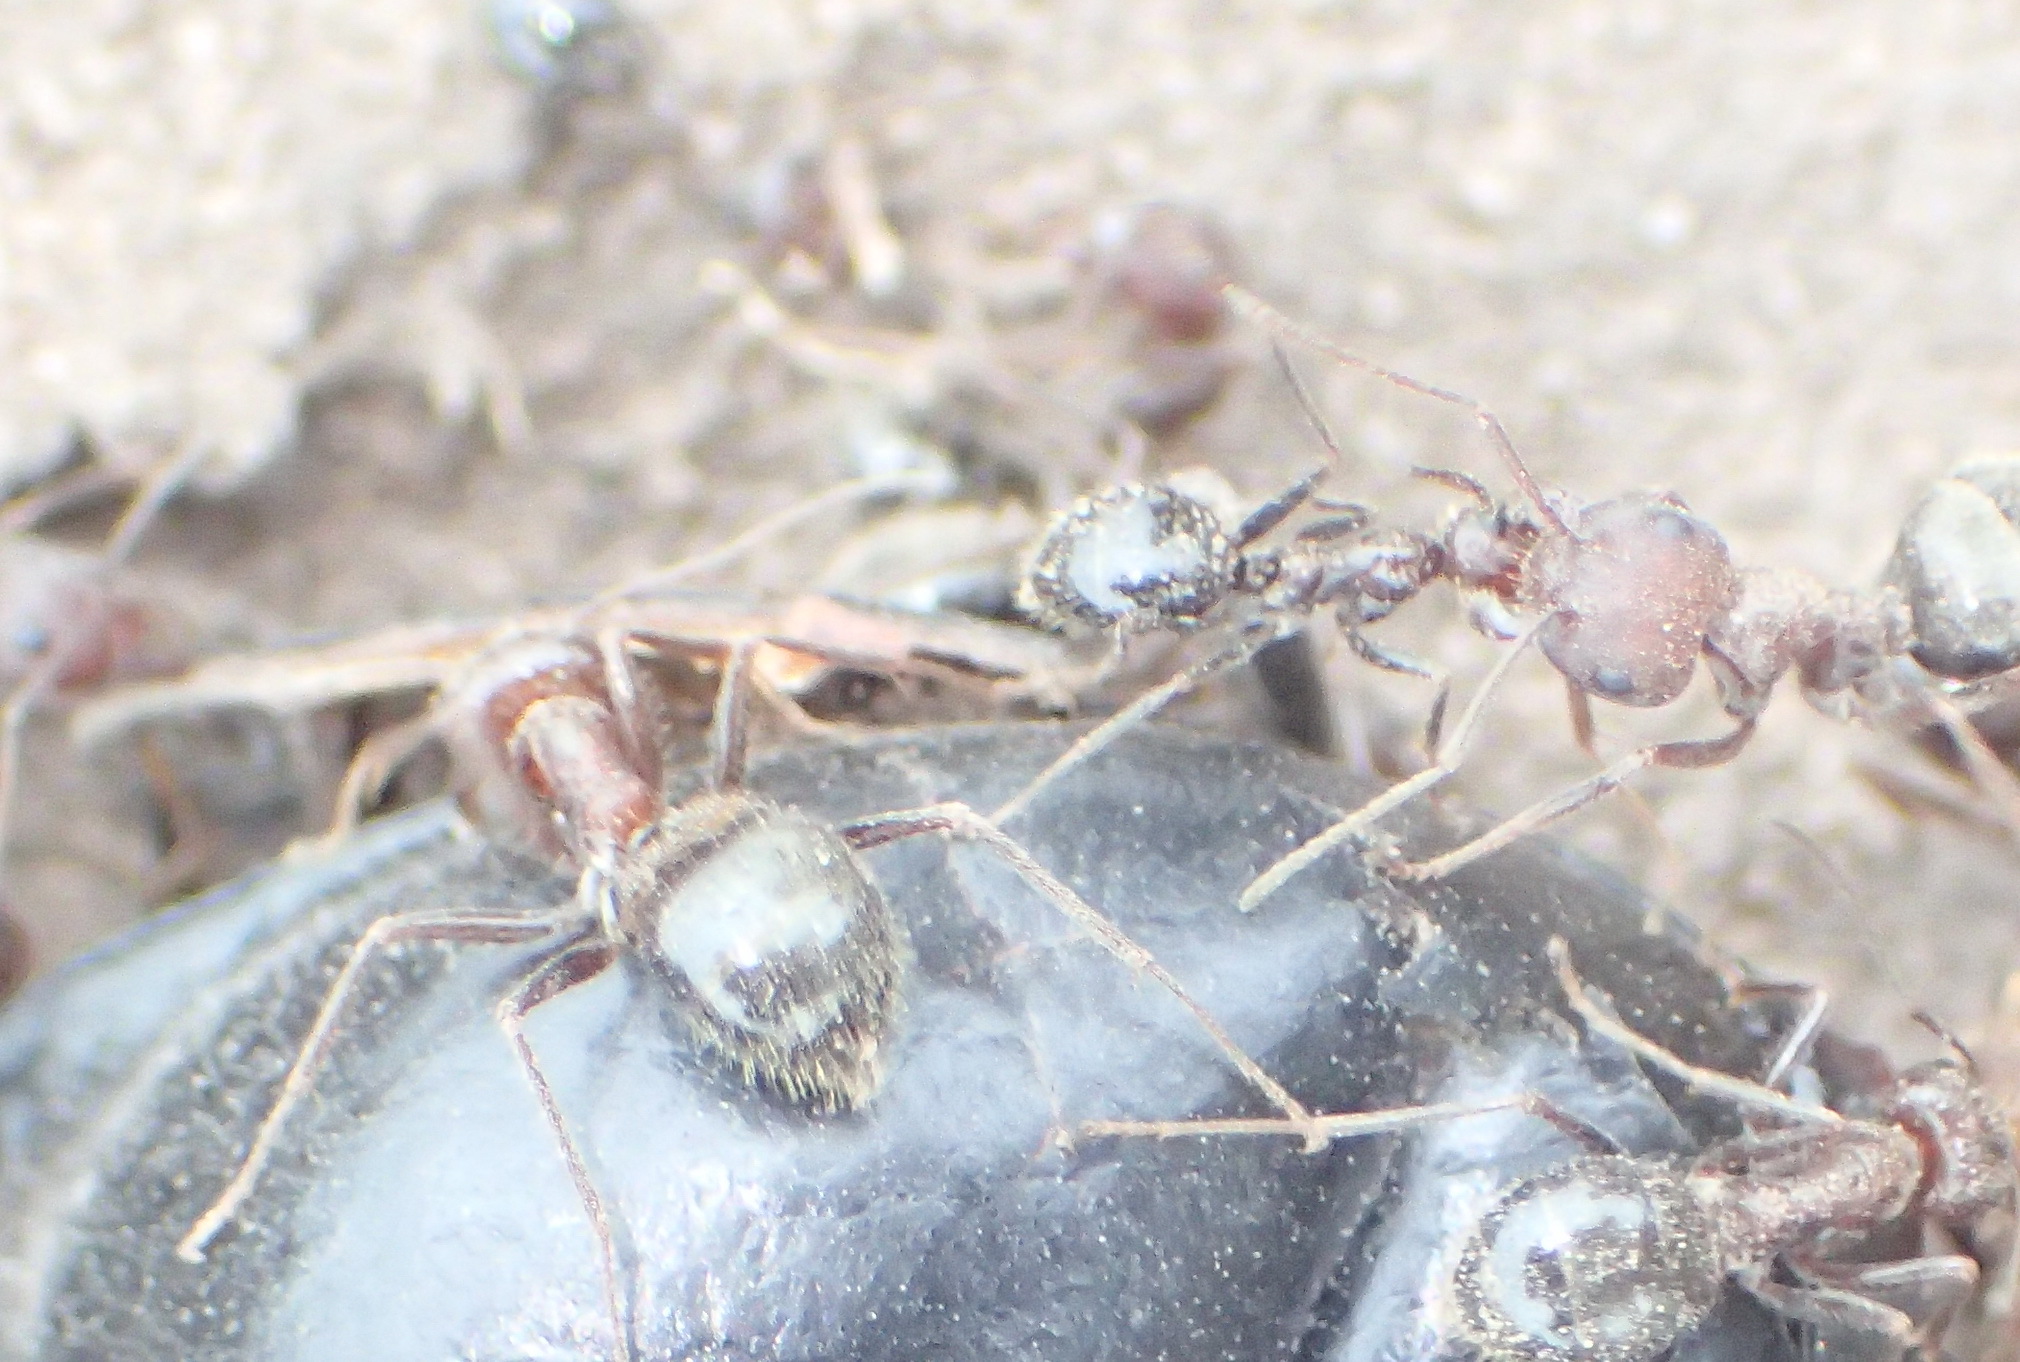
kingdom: Animalia
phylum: Arthropoda
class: Insecta
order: Hymenoptera
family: Formicidae
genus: Anoplolepis
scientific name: Anoplolepis steingroeveri
